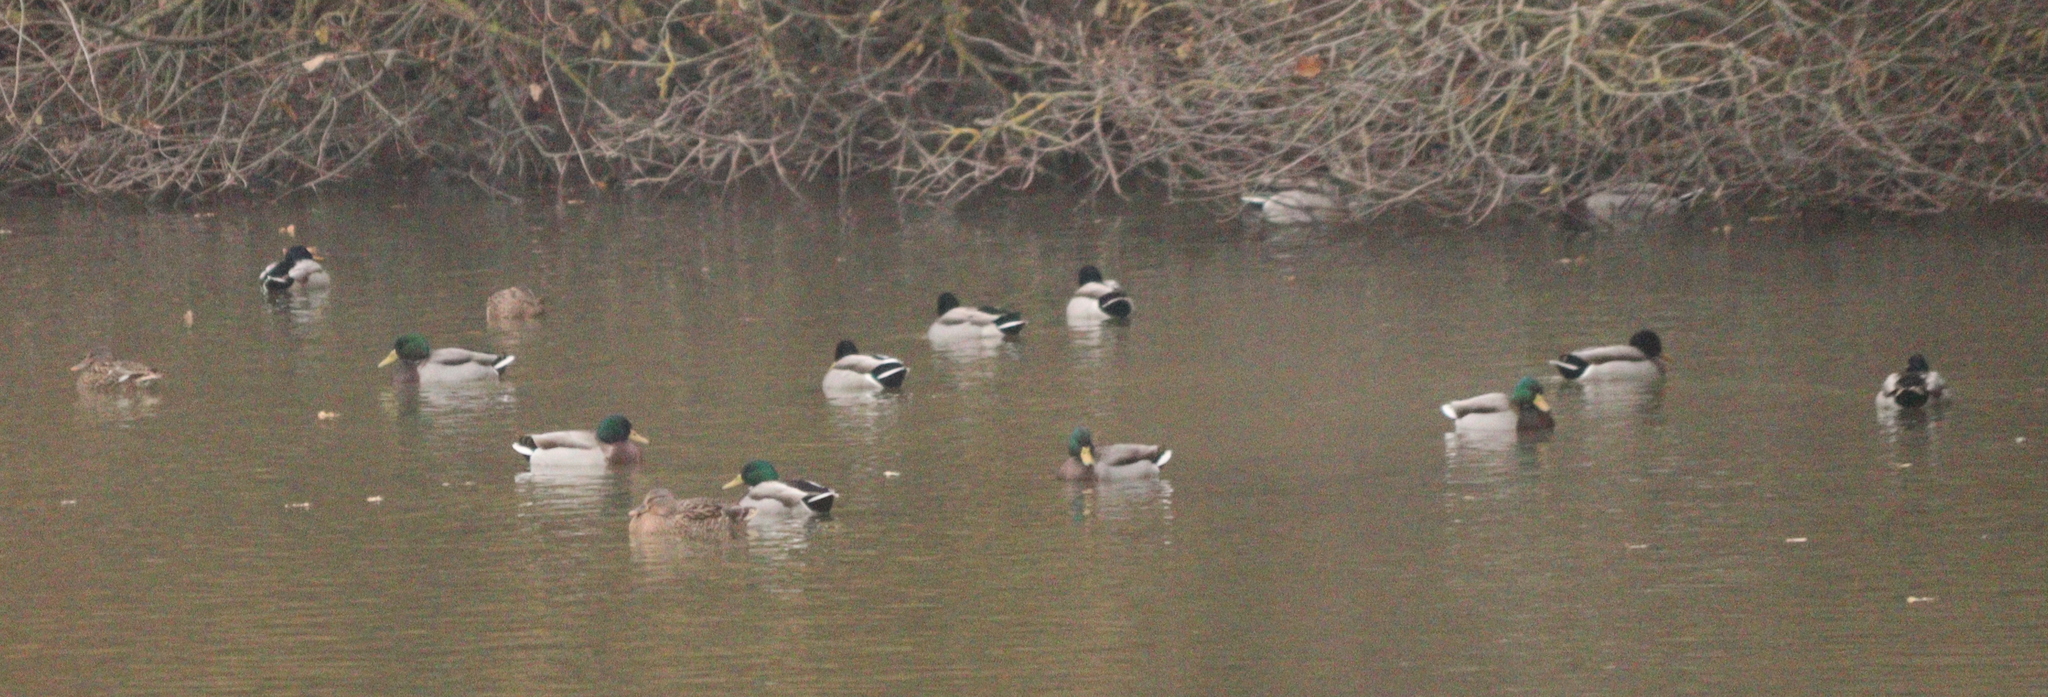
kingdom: Animalia
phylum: Chordata
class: Aves
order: Anseriformes
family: Anatidae
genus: Anas
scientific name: Anas platyrhynchos
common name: Mallard
